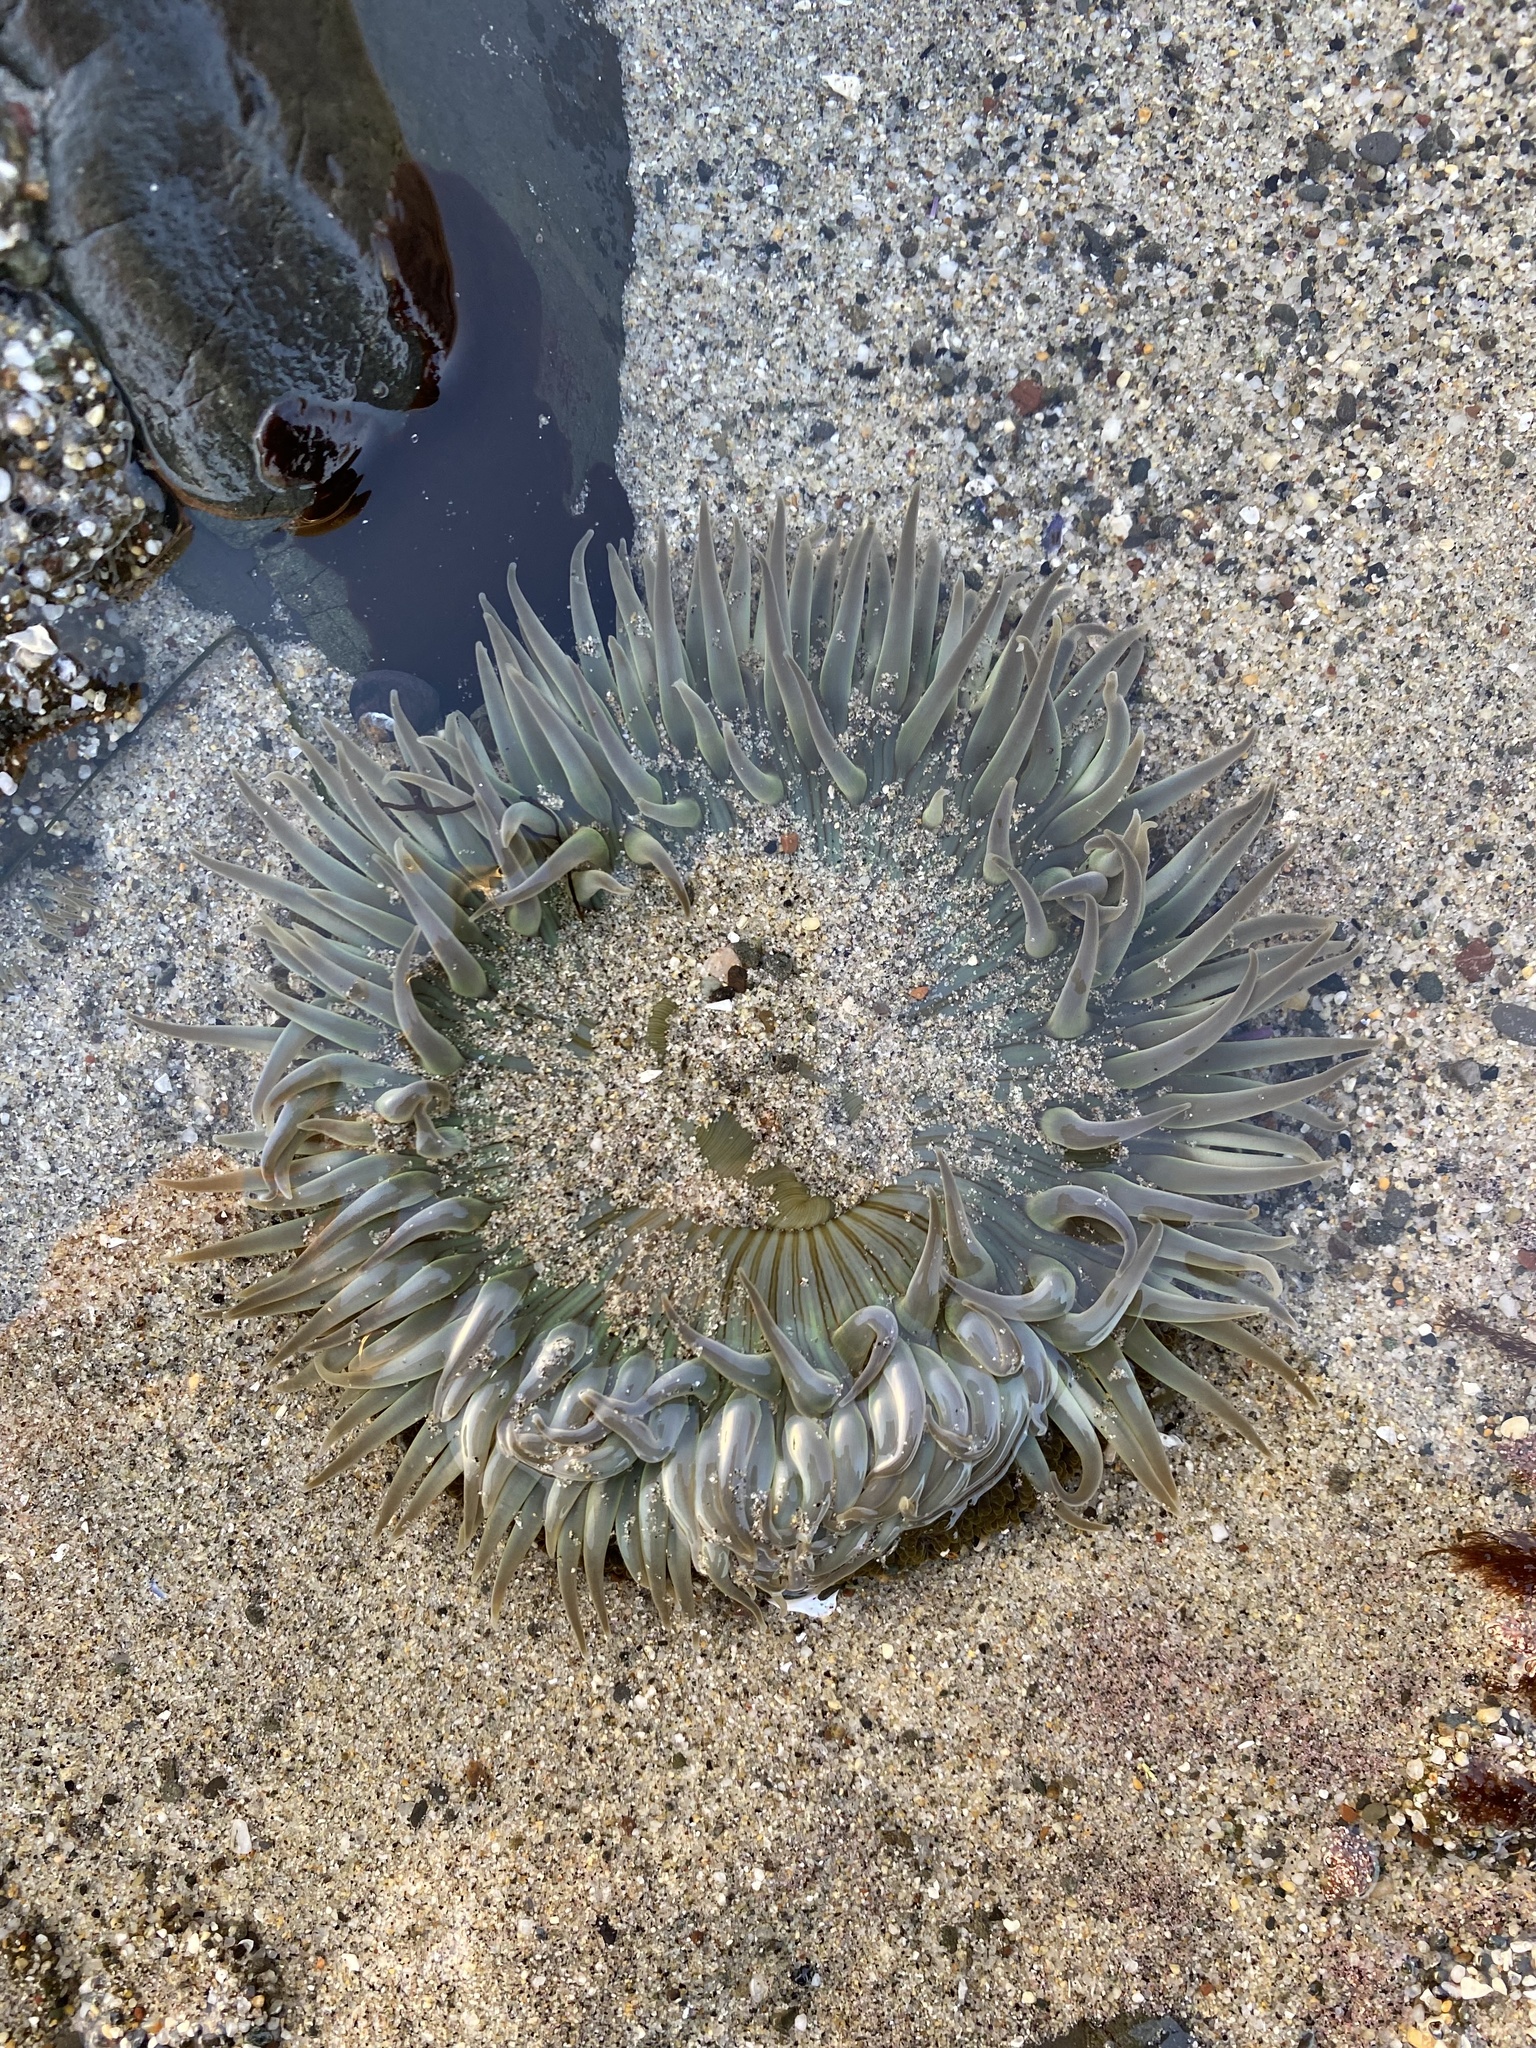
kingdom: Animalia
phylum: Cnidaria
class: Anthozoa
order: Actiniaria
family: Actiniidae
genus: Anthopleura
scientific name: Anthopleura sola
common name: Sun anemone
